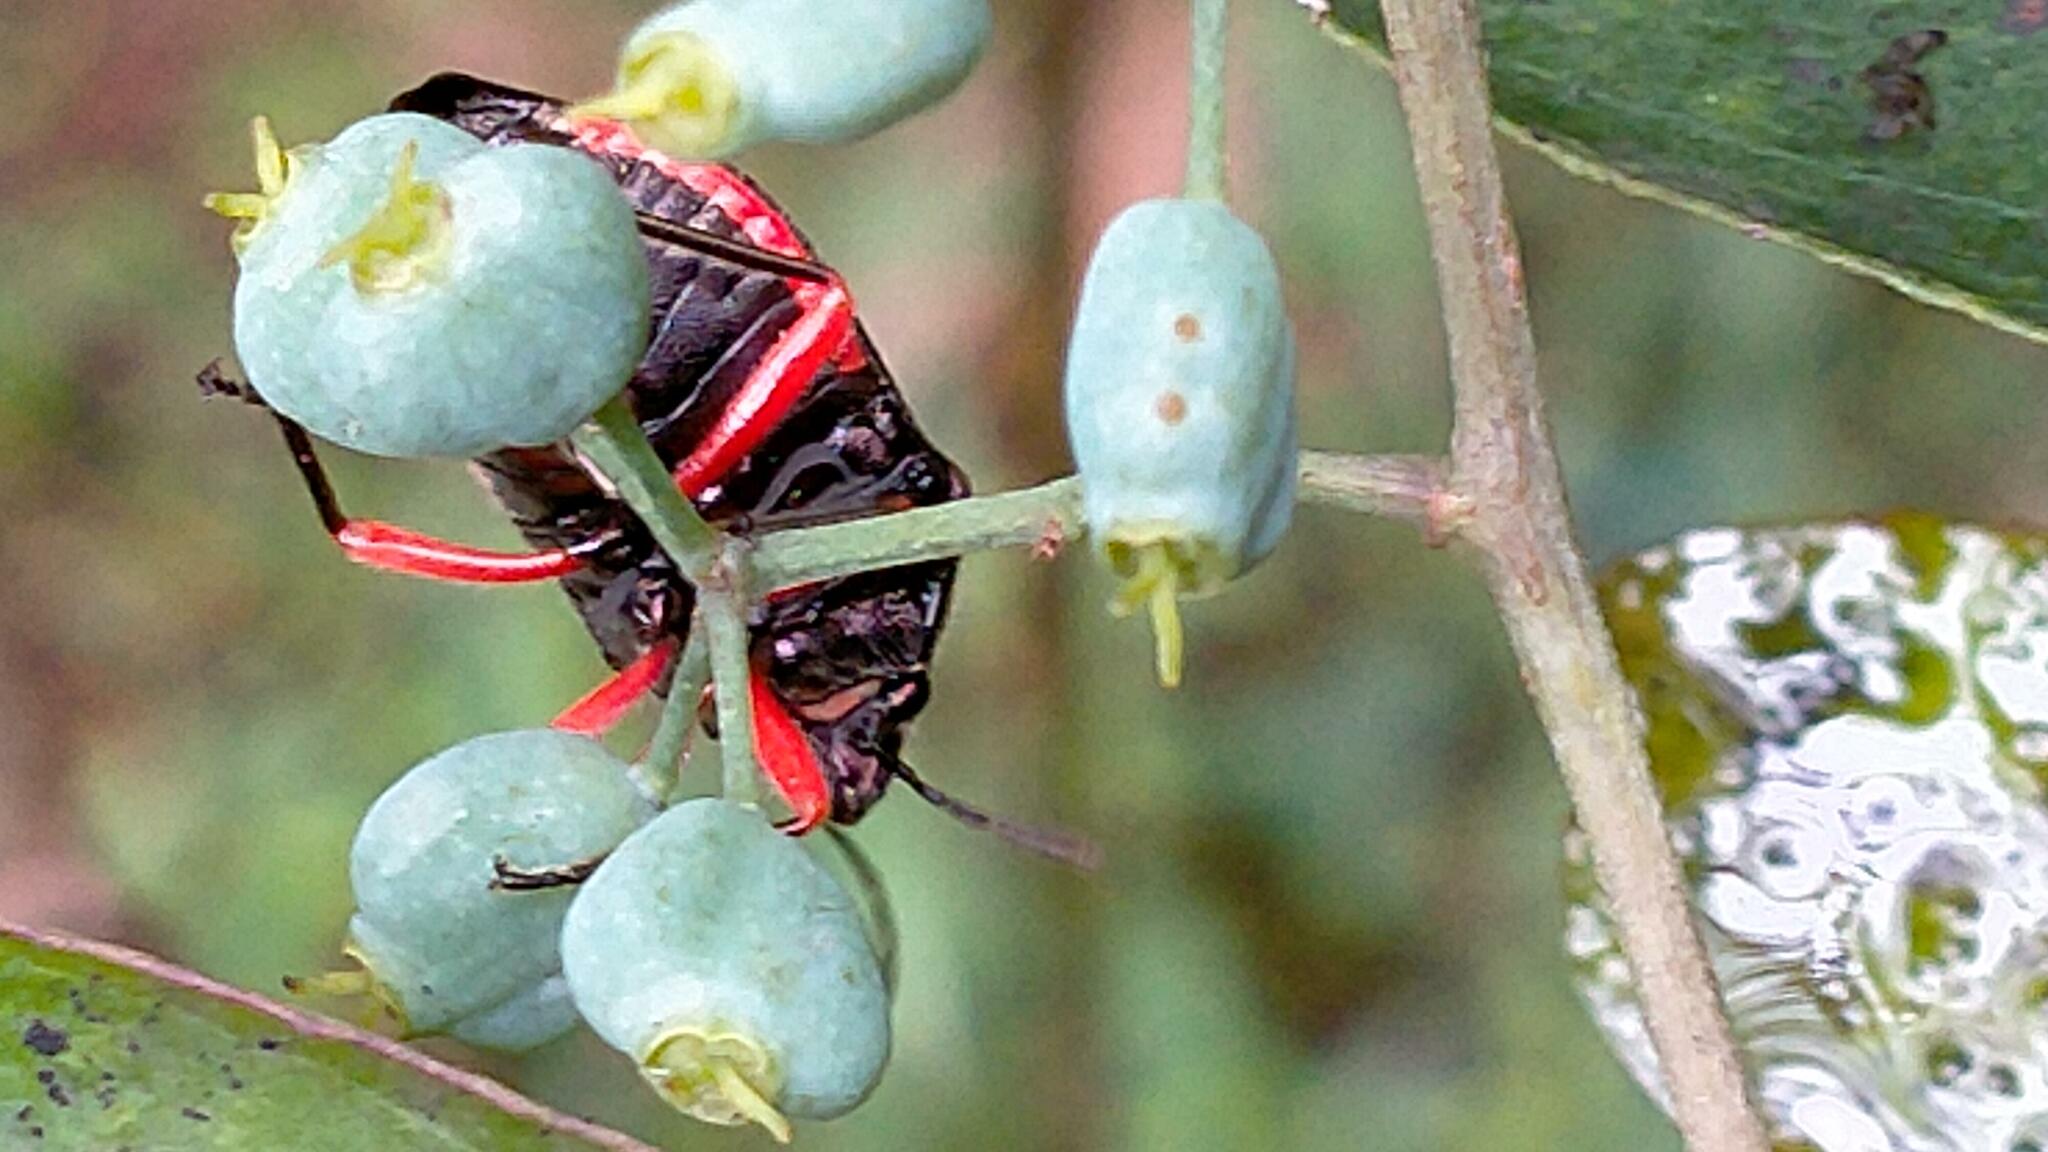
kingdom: Animalia
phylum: Arthropoda
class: Insecta
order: Hemiptera
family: Scutelleridae
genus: Lampromicra
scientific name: Lampromicra
